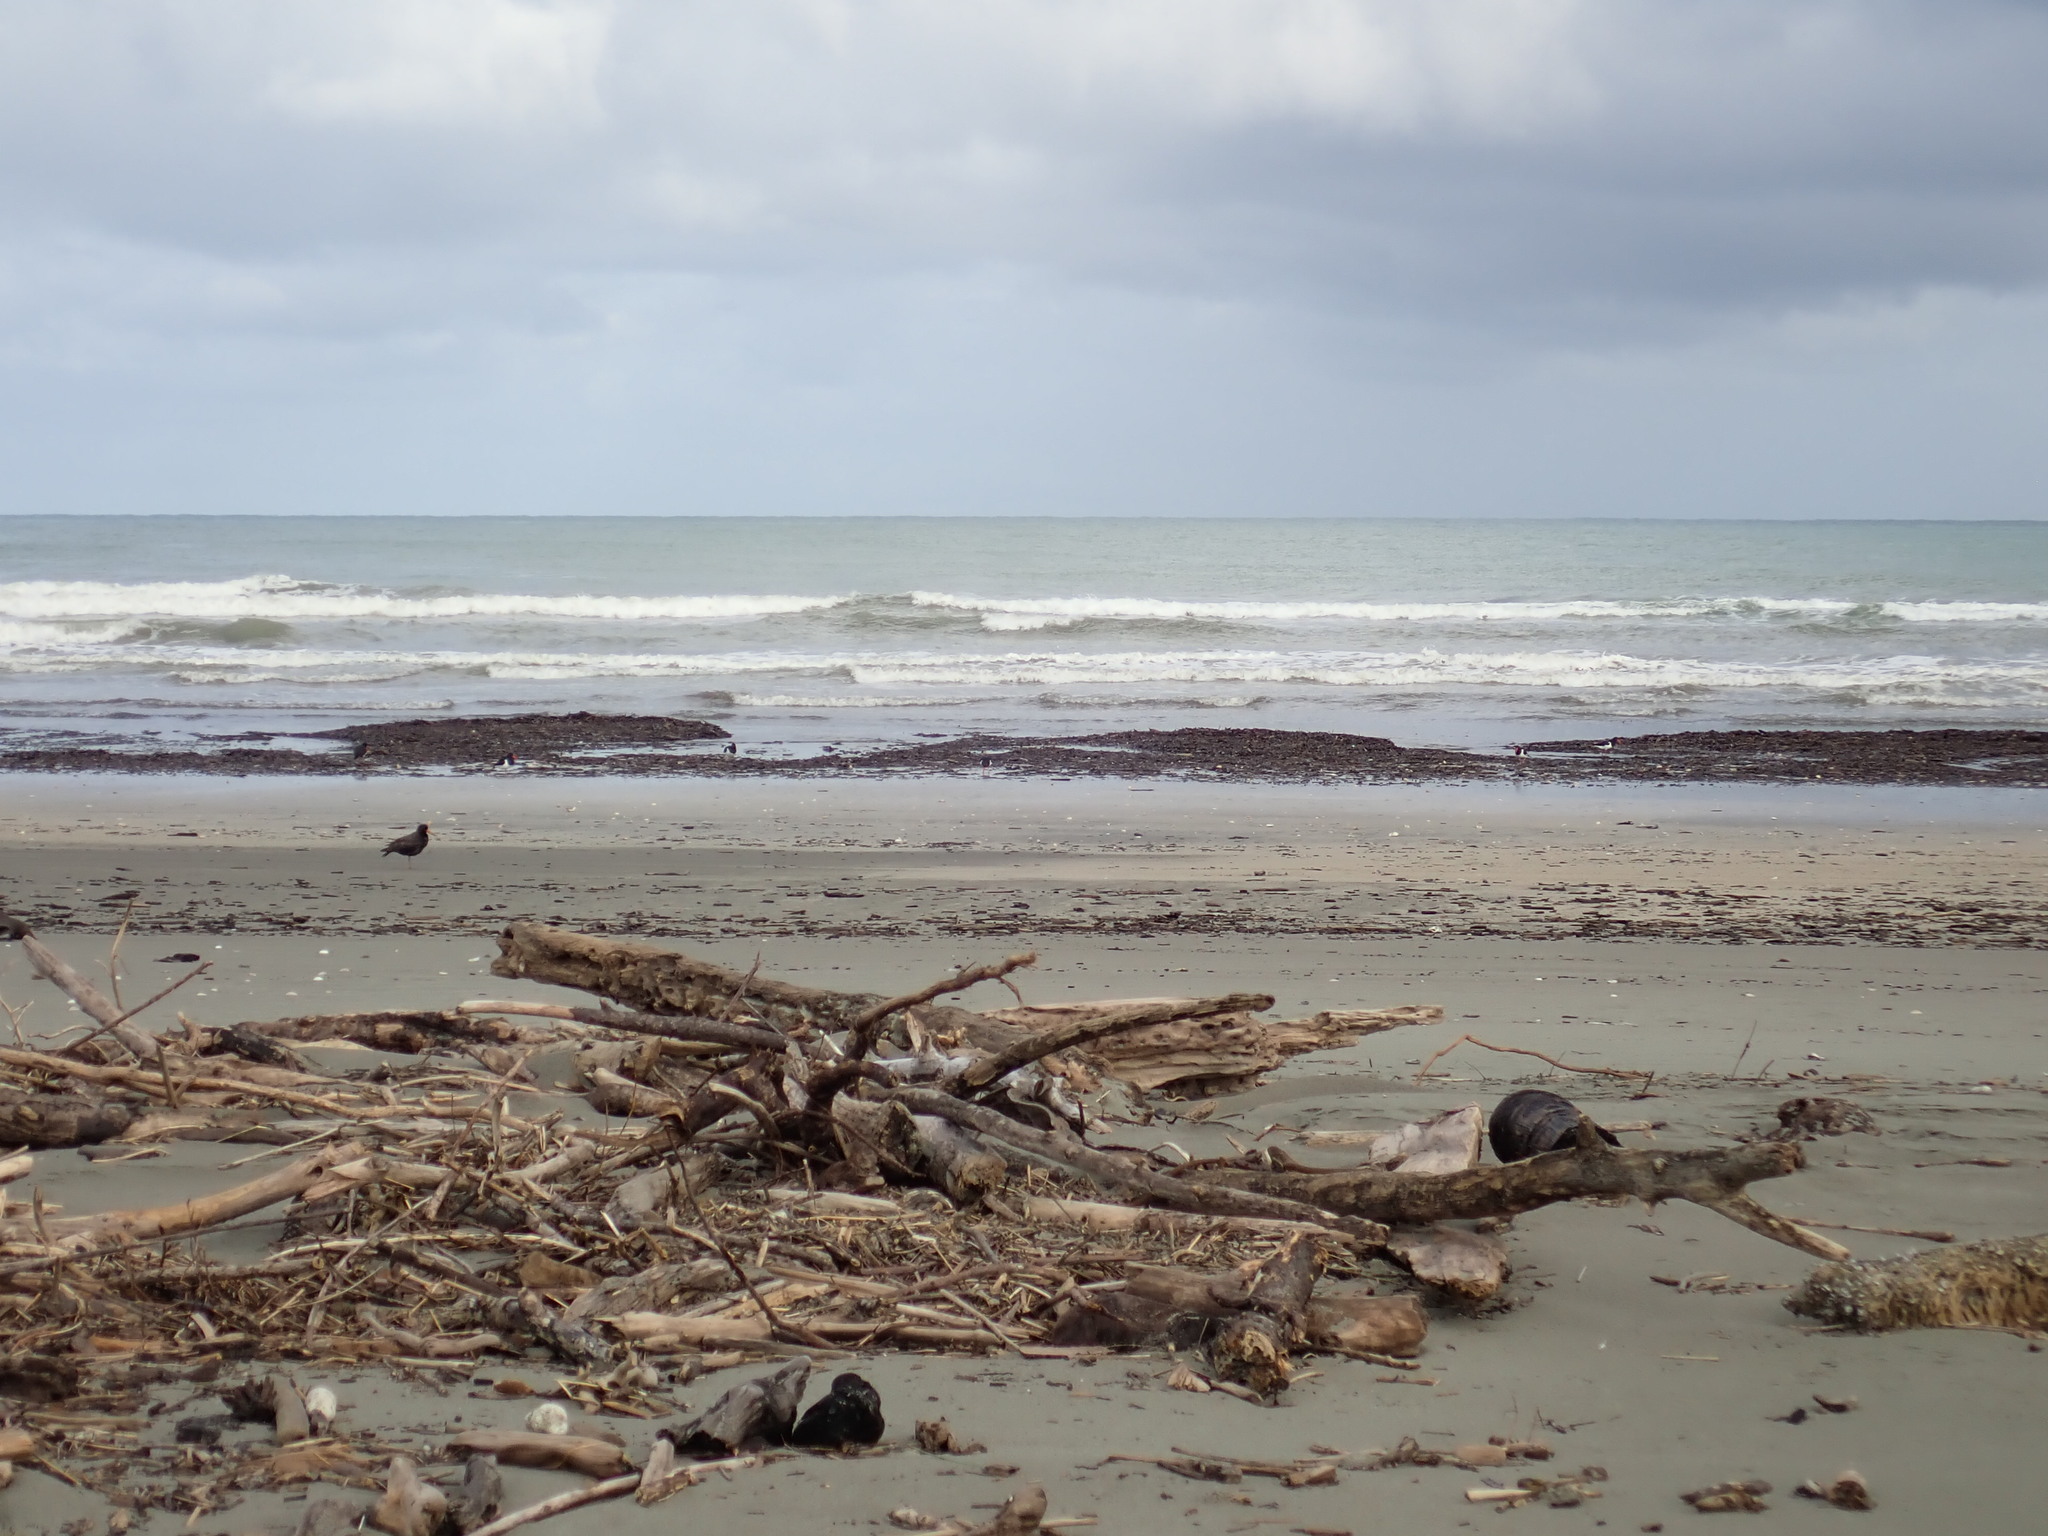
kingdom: Animalia
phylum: Chordata
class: Aves
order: Charadriiformes
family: Haematopodidae
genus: Haematopus
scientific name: Haematopus finschi
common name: South island oystercatcher
